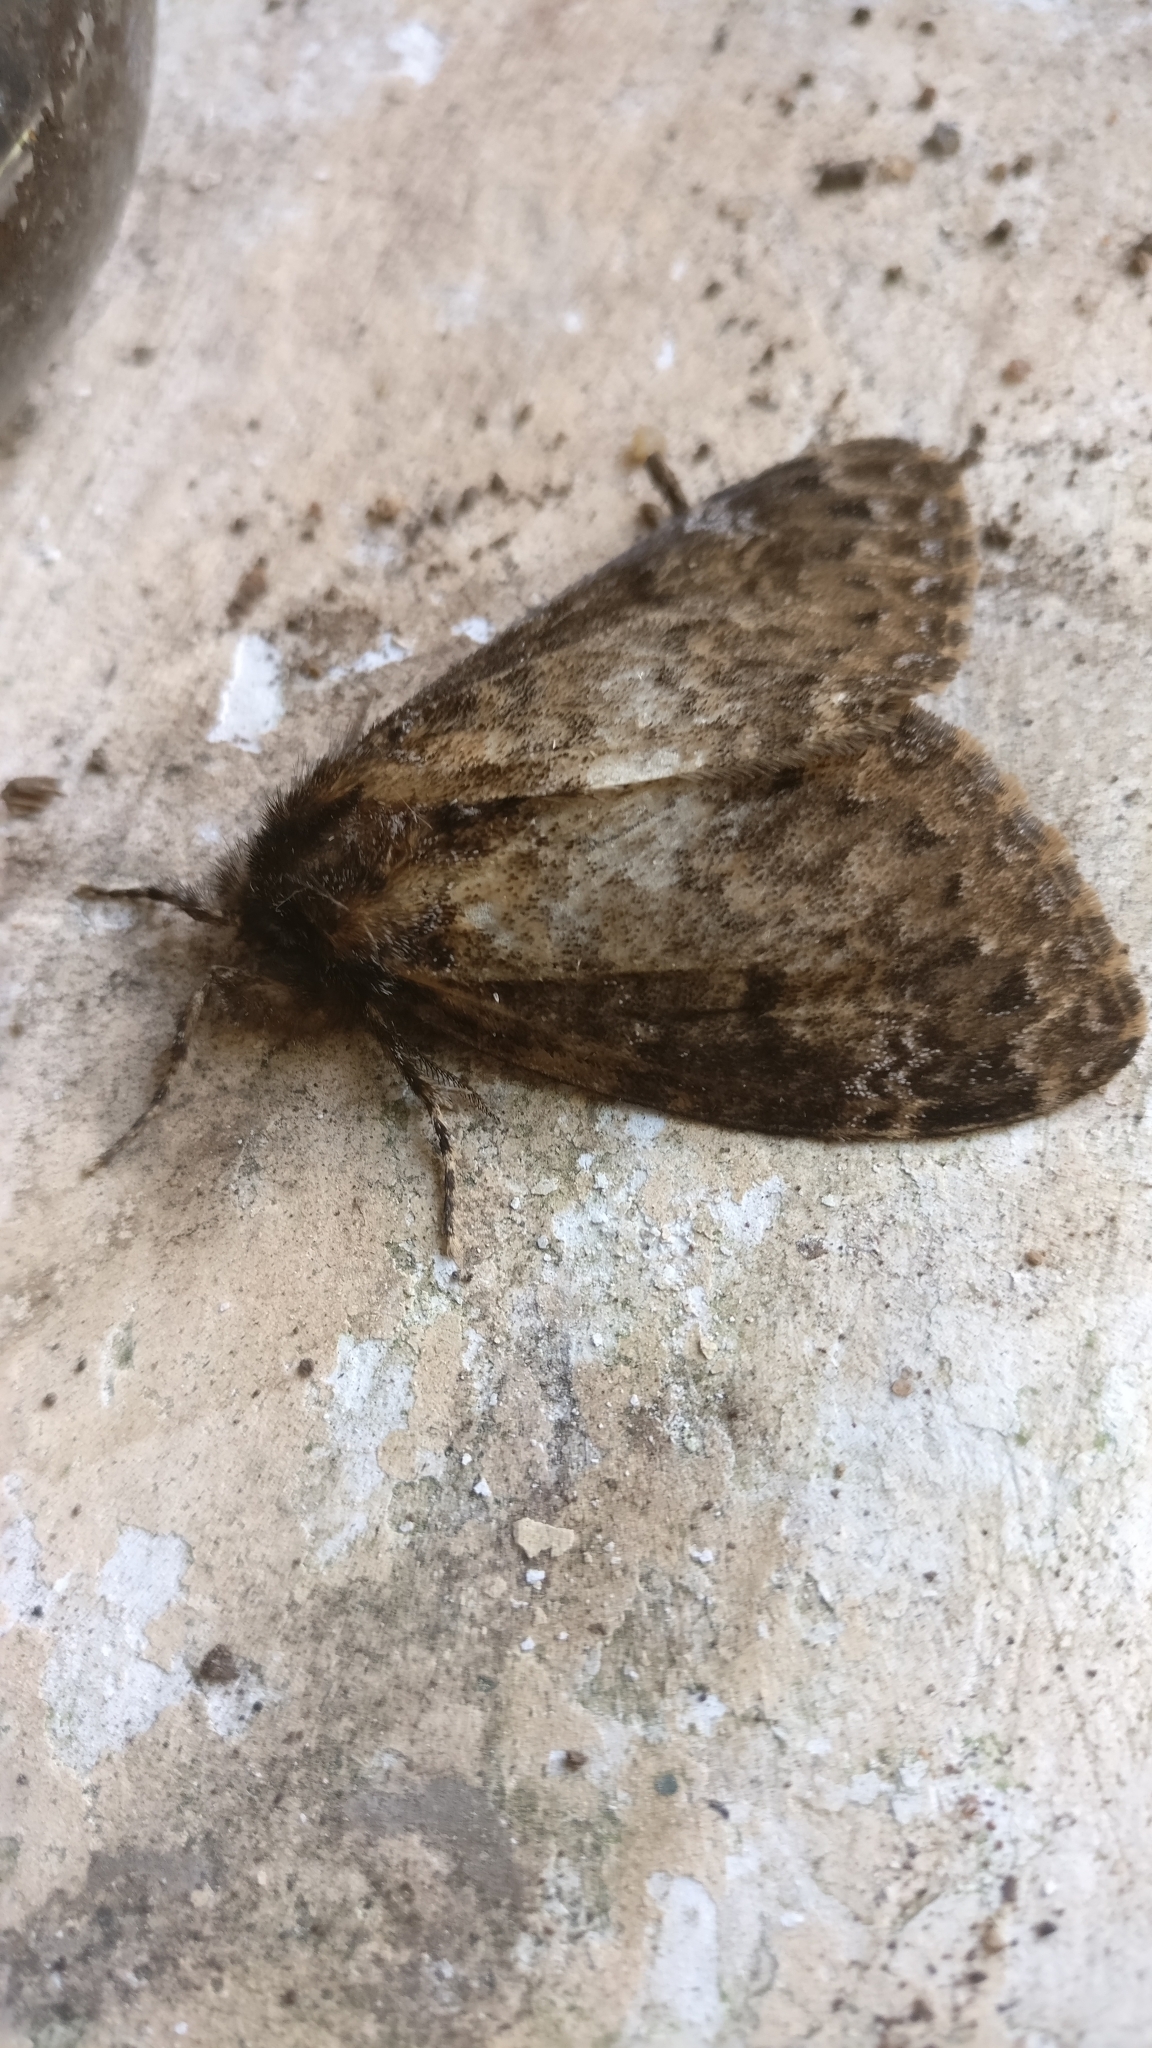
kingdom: Animalia
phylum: Arthropoda
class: Insecta
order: Lepidoptera
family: Erebidae
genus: Lymantria
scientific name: Lymantria serva
